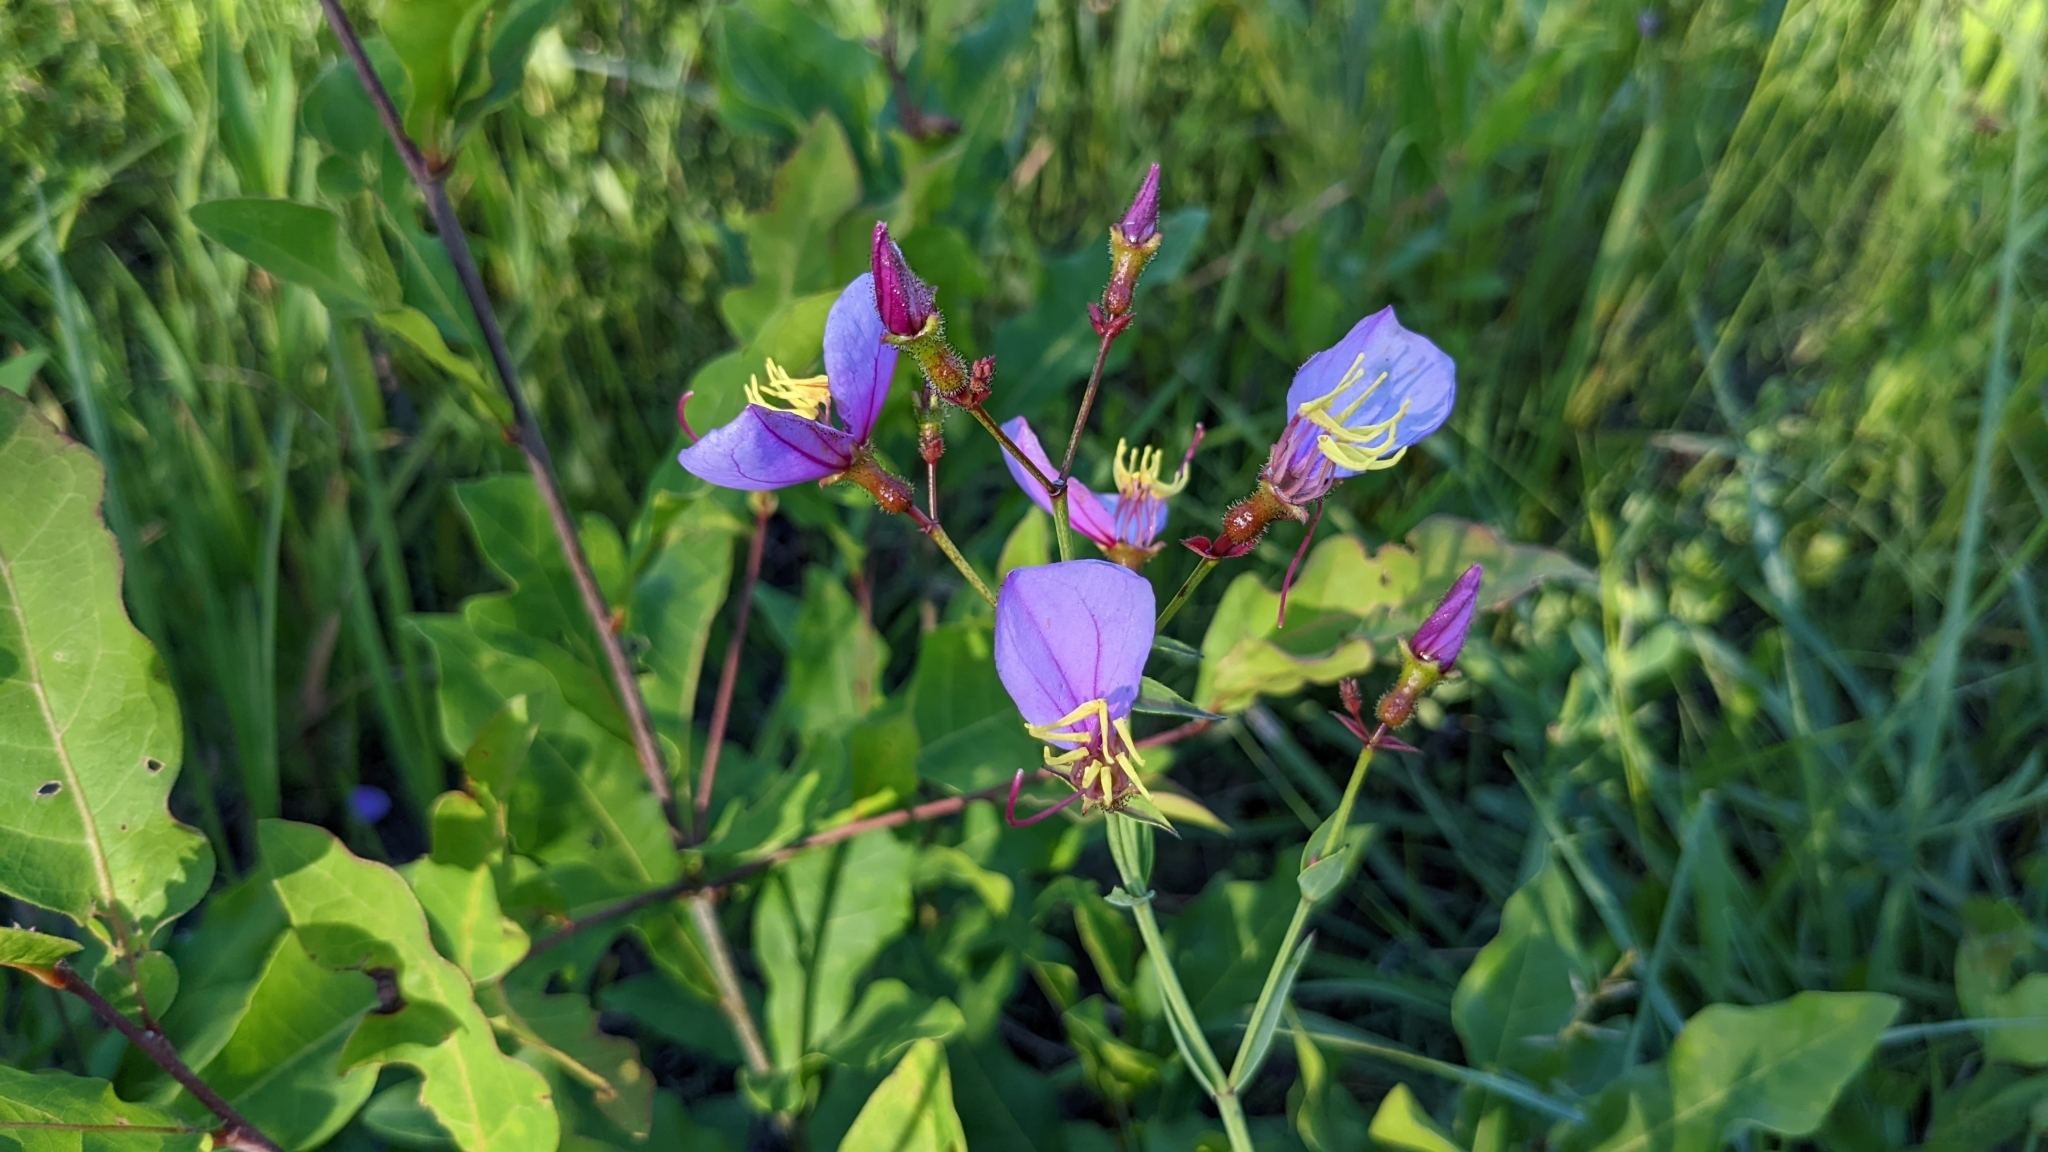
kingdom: Plantae
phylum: Tracheophyta
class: Magnoliopsida
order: Myrtales
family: Melastomataceae
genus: Rhexia
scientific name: Rhexia alifanus
